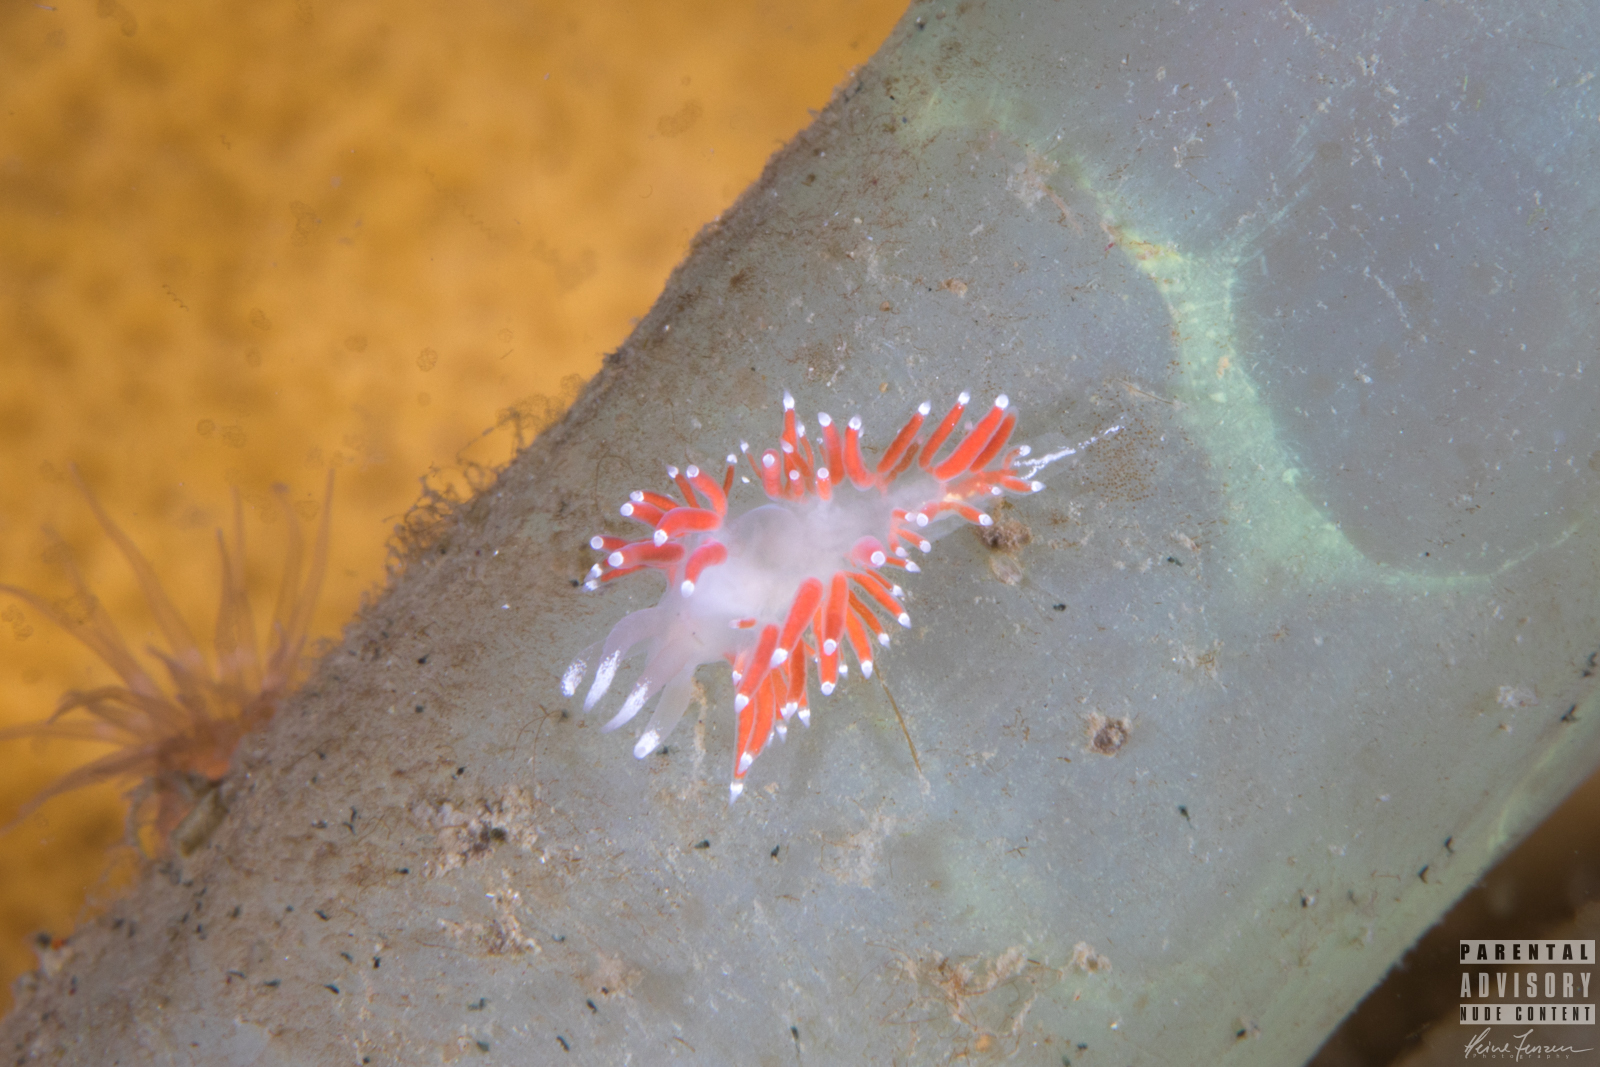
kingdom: Animalia
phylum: Mollusca
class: Gastropoda
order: Nudibranchia
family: Coryphellidae
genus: Coryphella
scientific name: Coryphella gracilis
